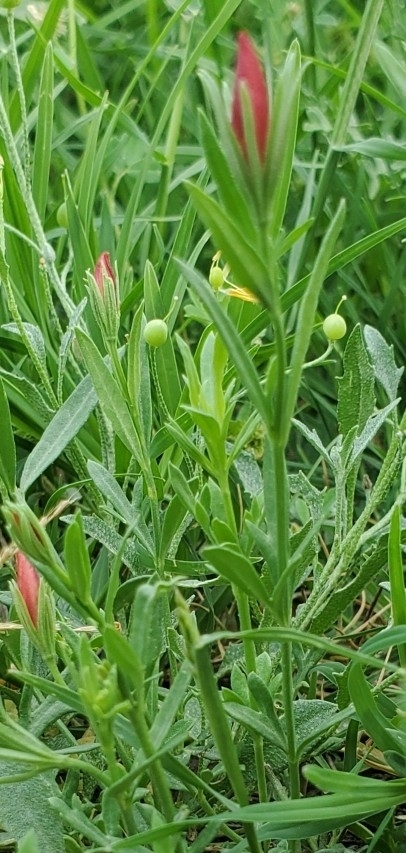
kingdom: Plantae
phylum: Tracheophyta
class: Magnoliopsida
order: Lamiales
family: Oleaceae
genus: Menodora
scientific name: Menodora heterophylla
